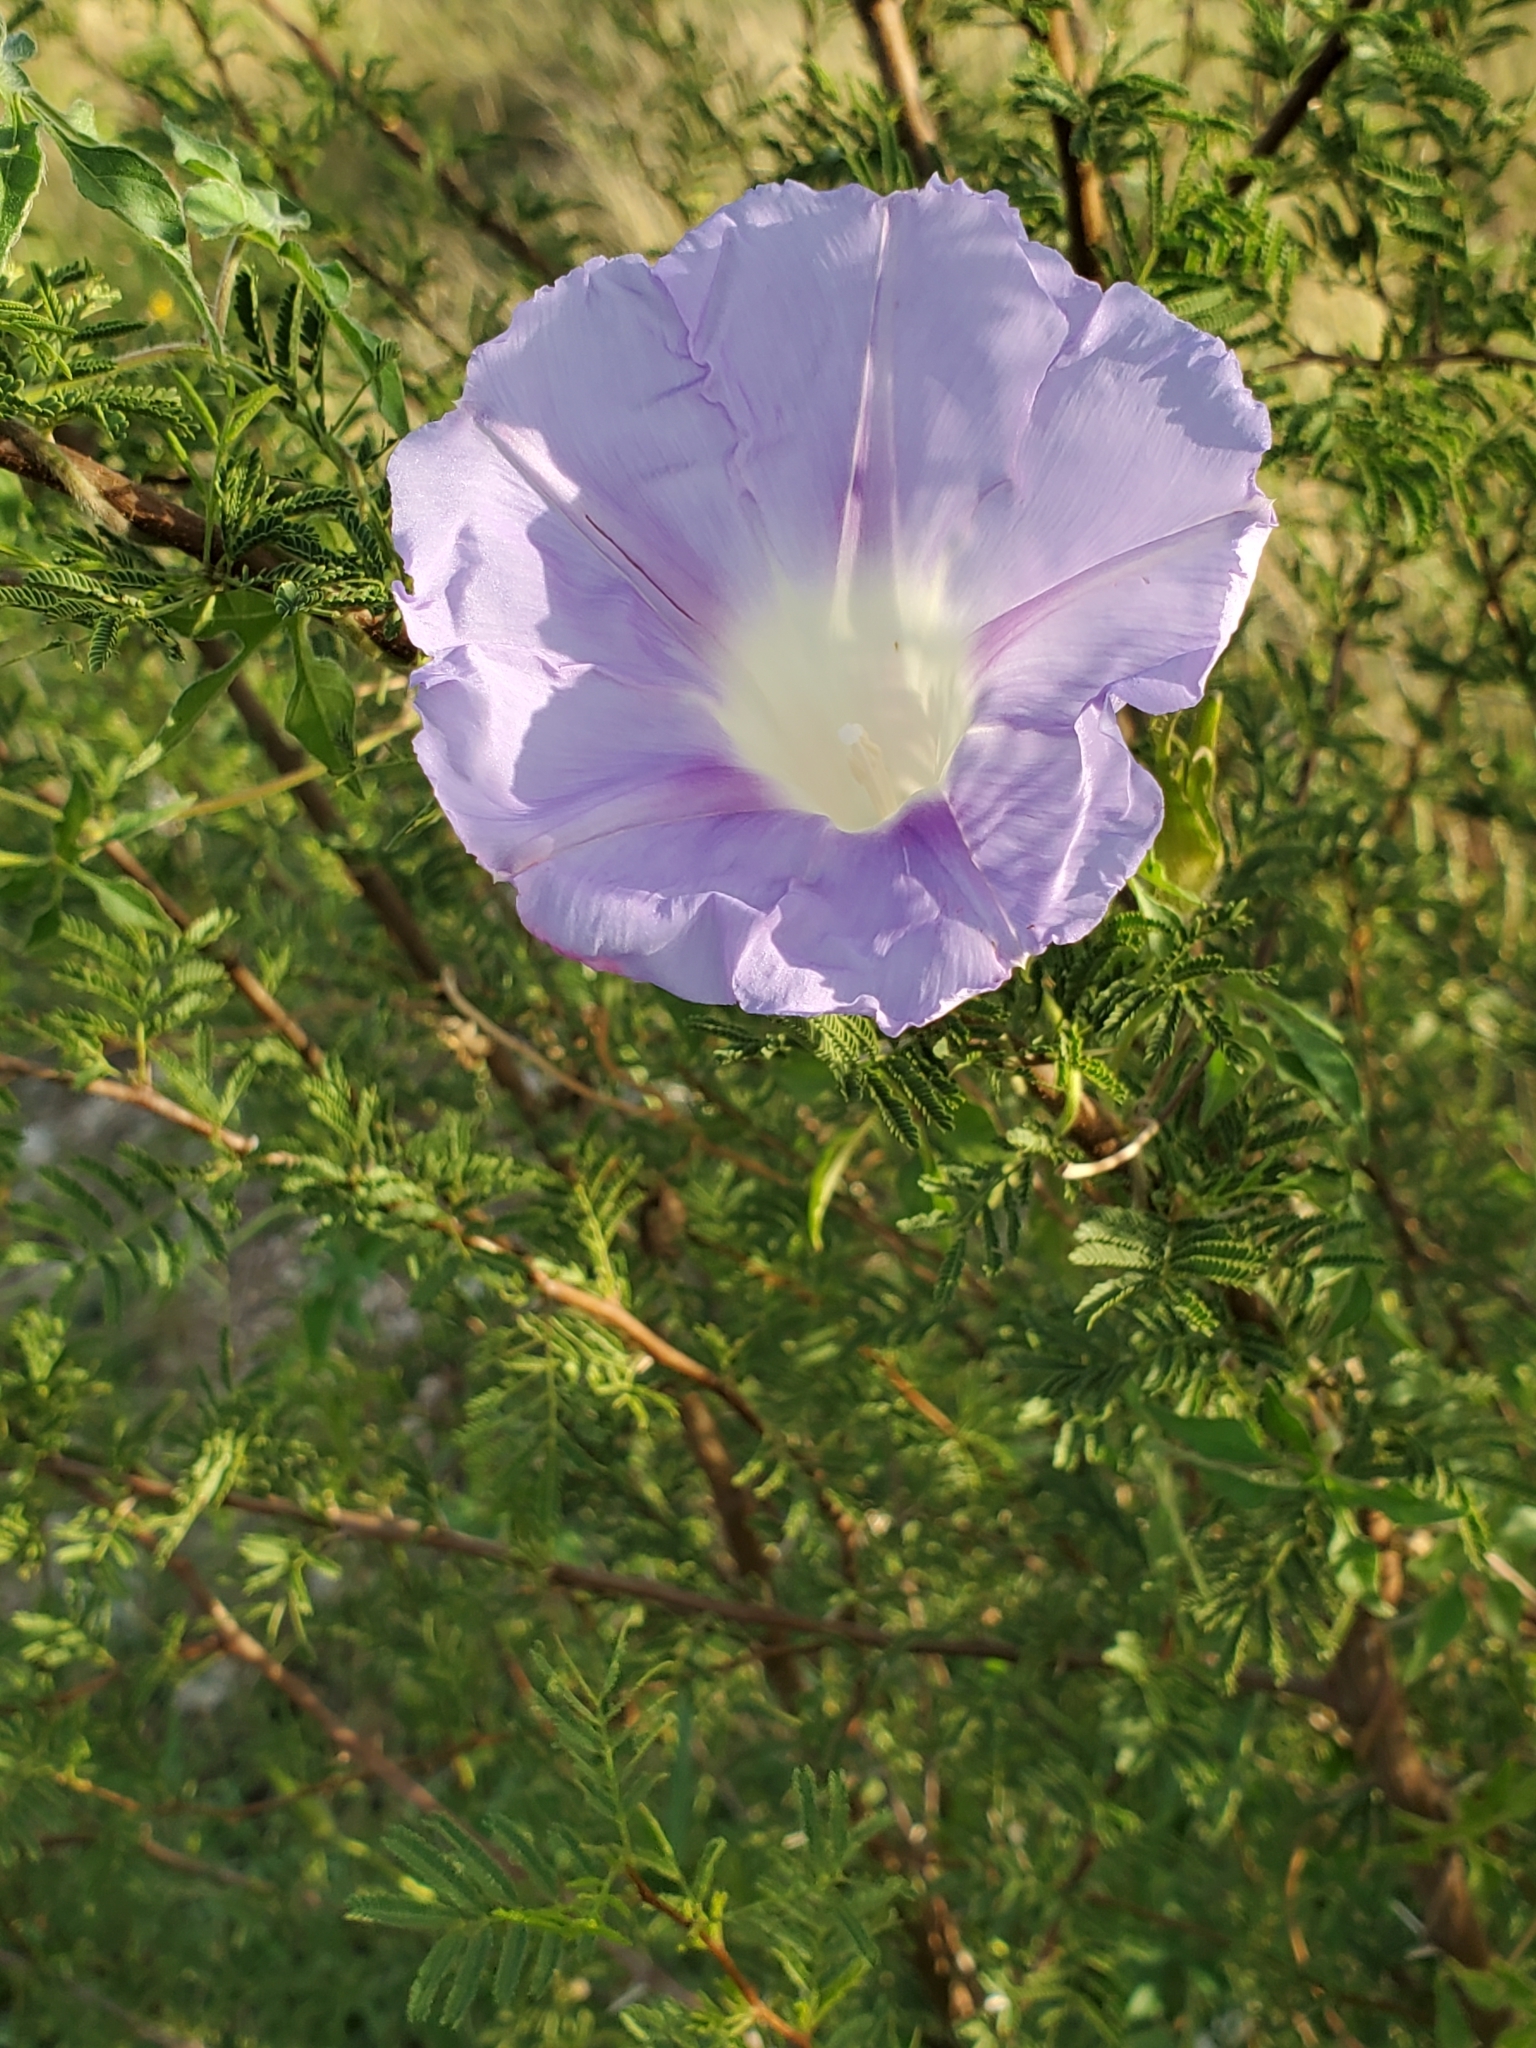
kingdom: Plantae
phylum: Tracheophyta
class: Magnoliopsida
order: Solanales
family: Convolvulaceae
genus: Ipomoea
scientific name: Ipomoea lindheimeri
